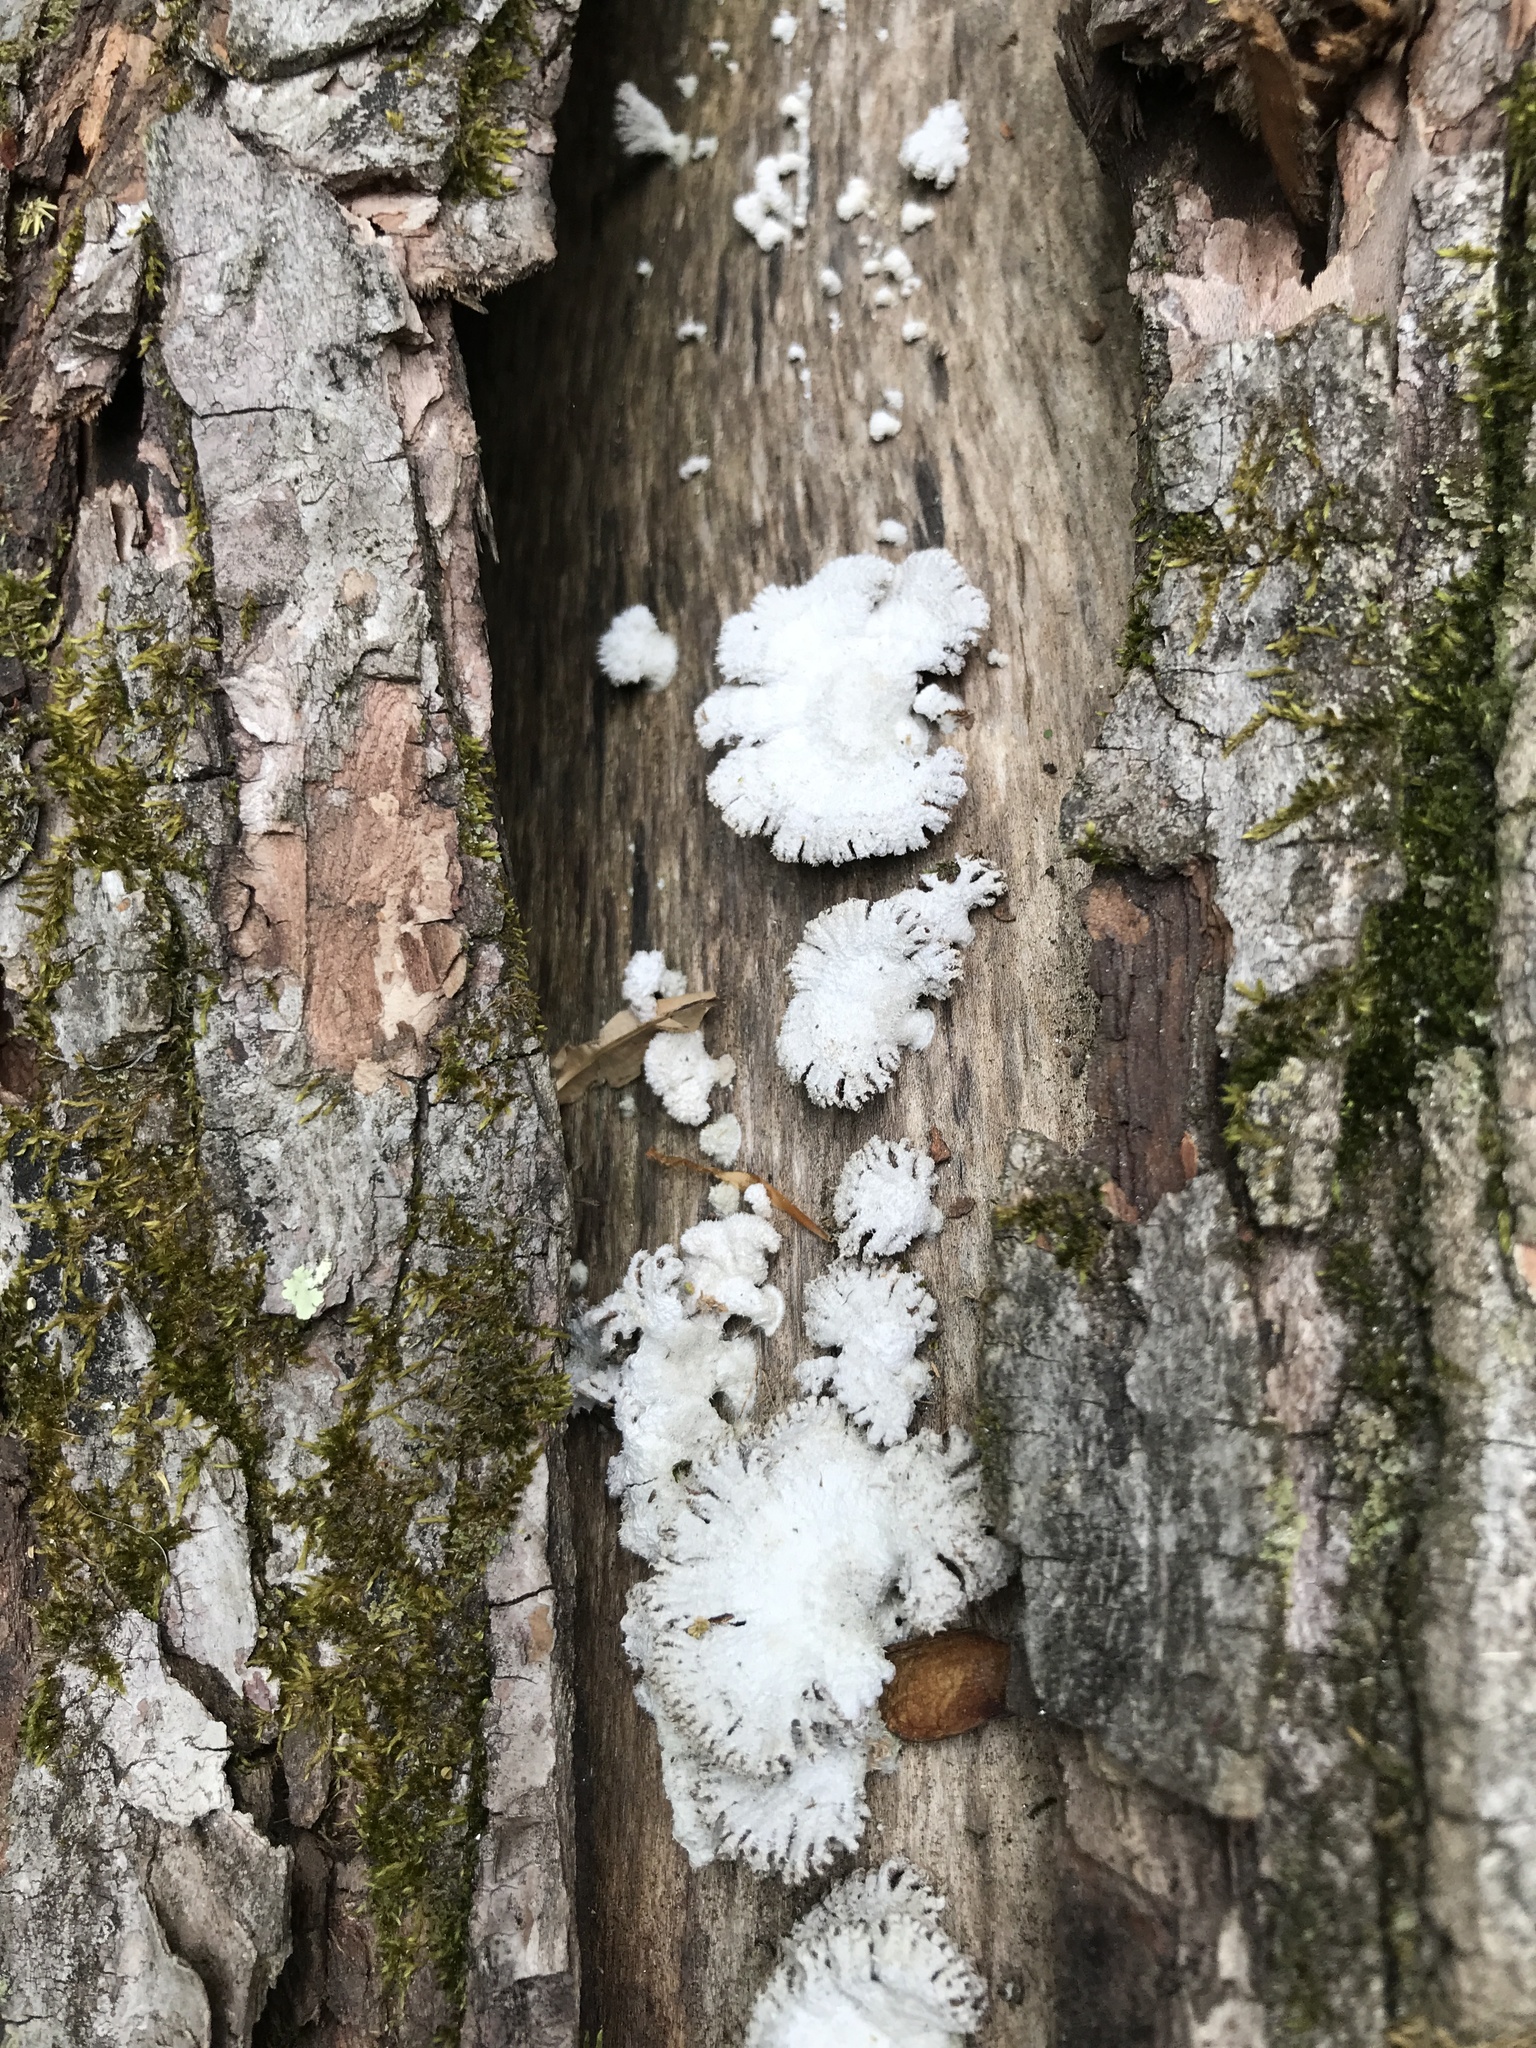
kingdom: Fungi
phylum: Basidiomycota
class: Agaricomycetes
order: Agaricales
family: Schizophyllaceae
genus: Schizophyllum
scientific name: Schizophyllum commune
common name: Common porecrust
